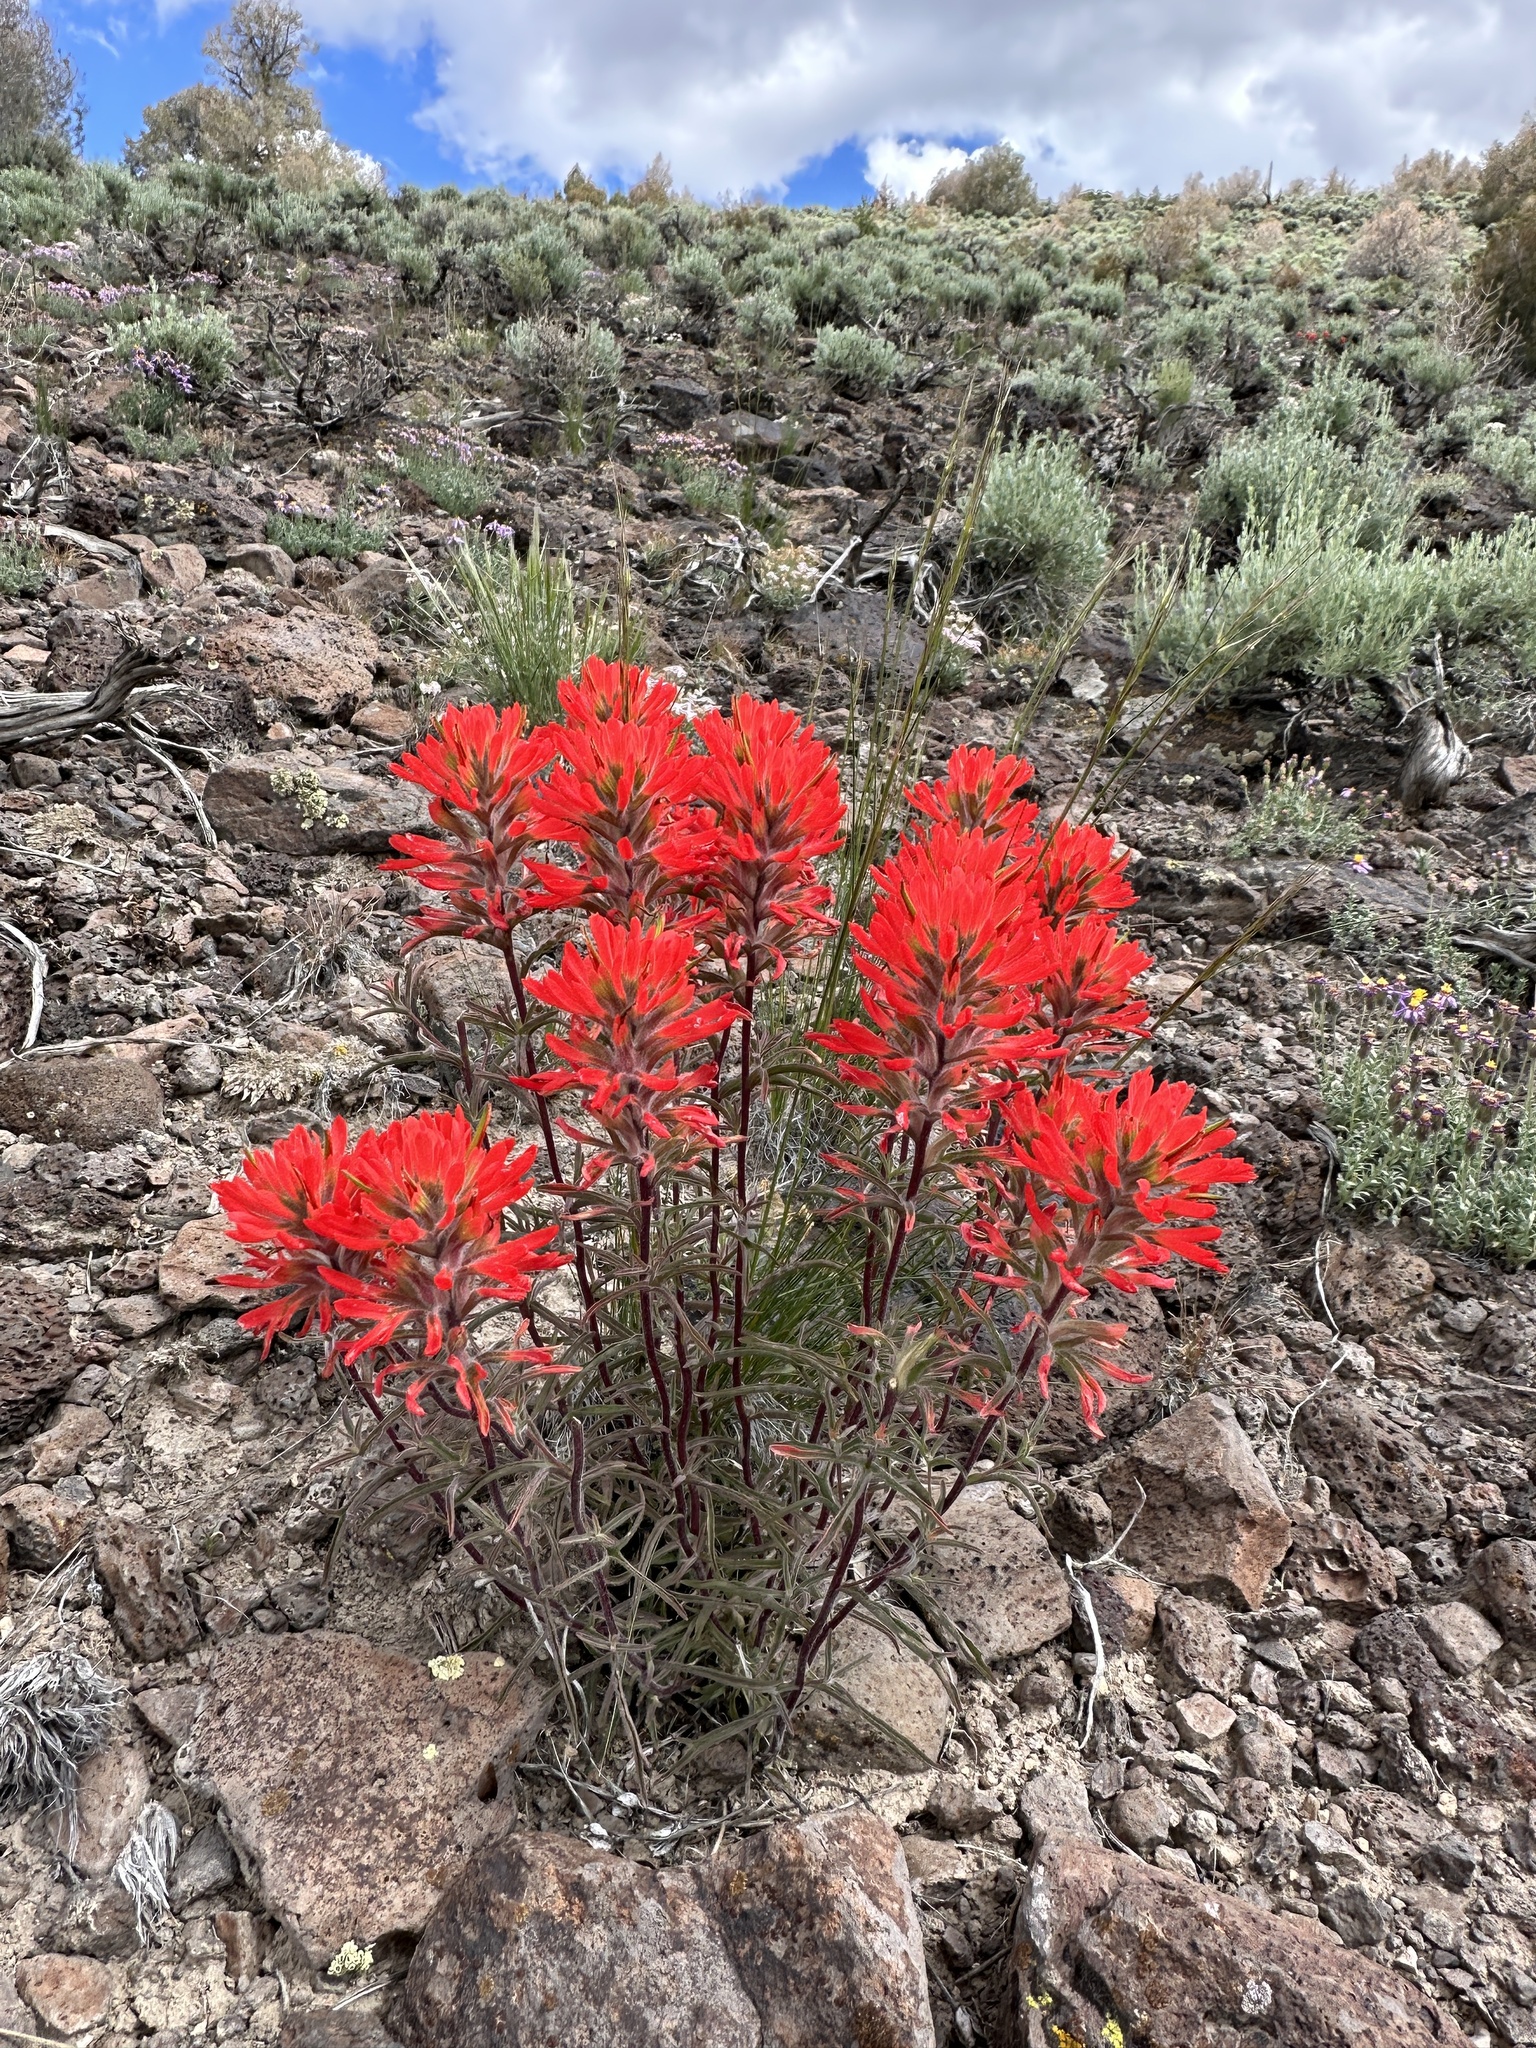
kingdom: Plantae
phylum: Tracheophyta
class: Magnoliopsida
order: Lamiales
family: Orobanchaceae
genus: Castilleja
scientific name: Castilleja chromosa
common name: Desert paintbrush
